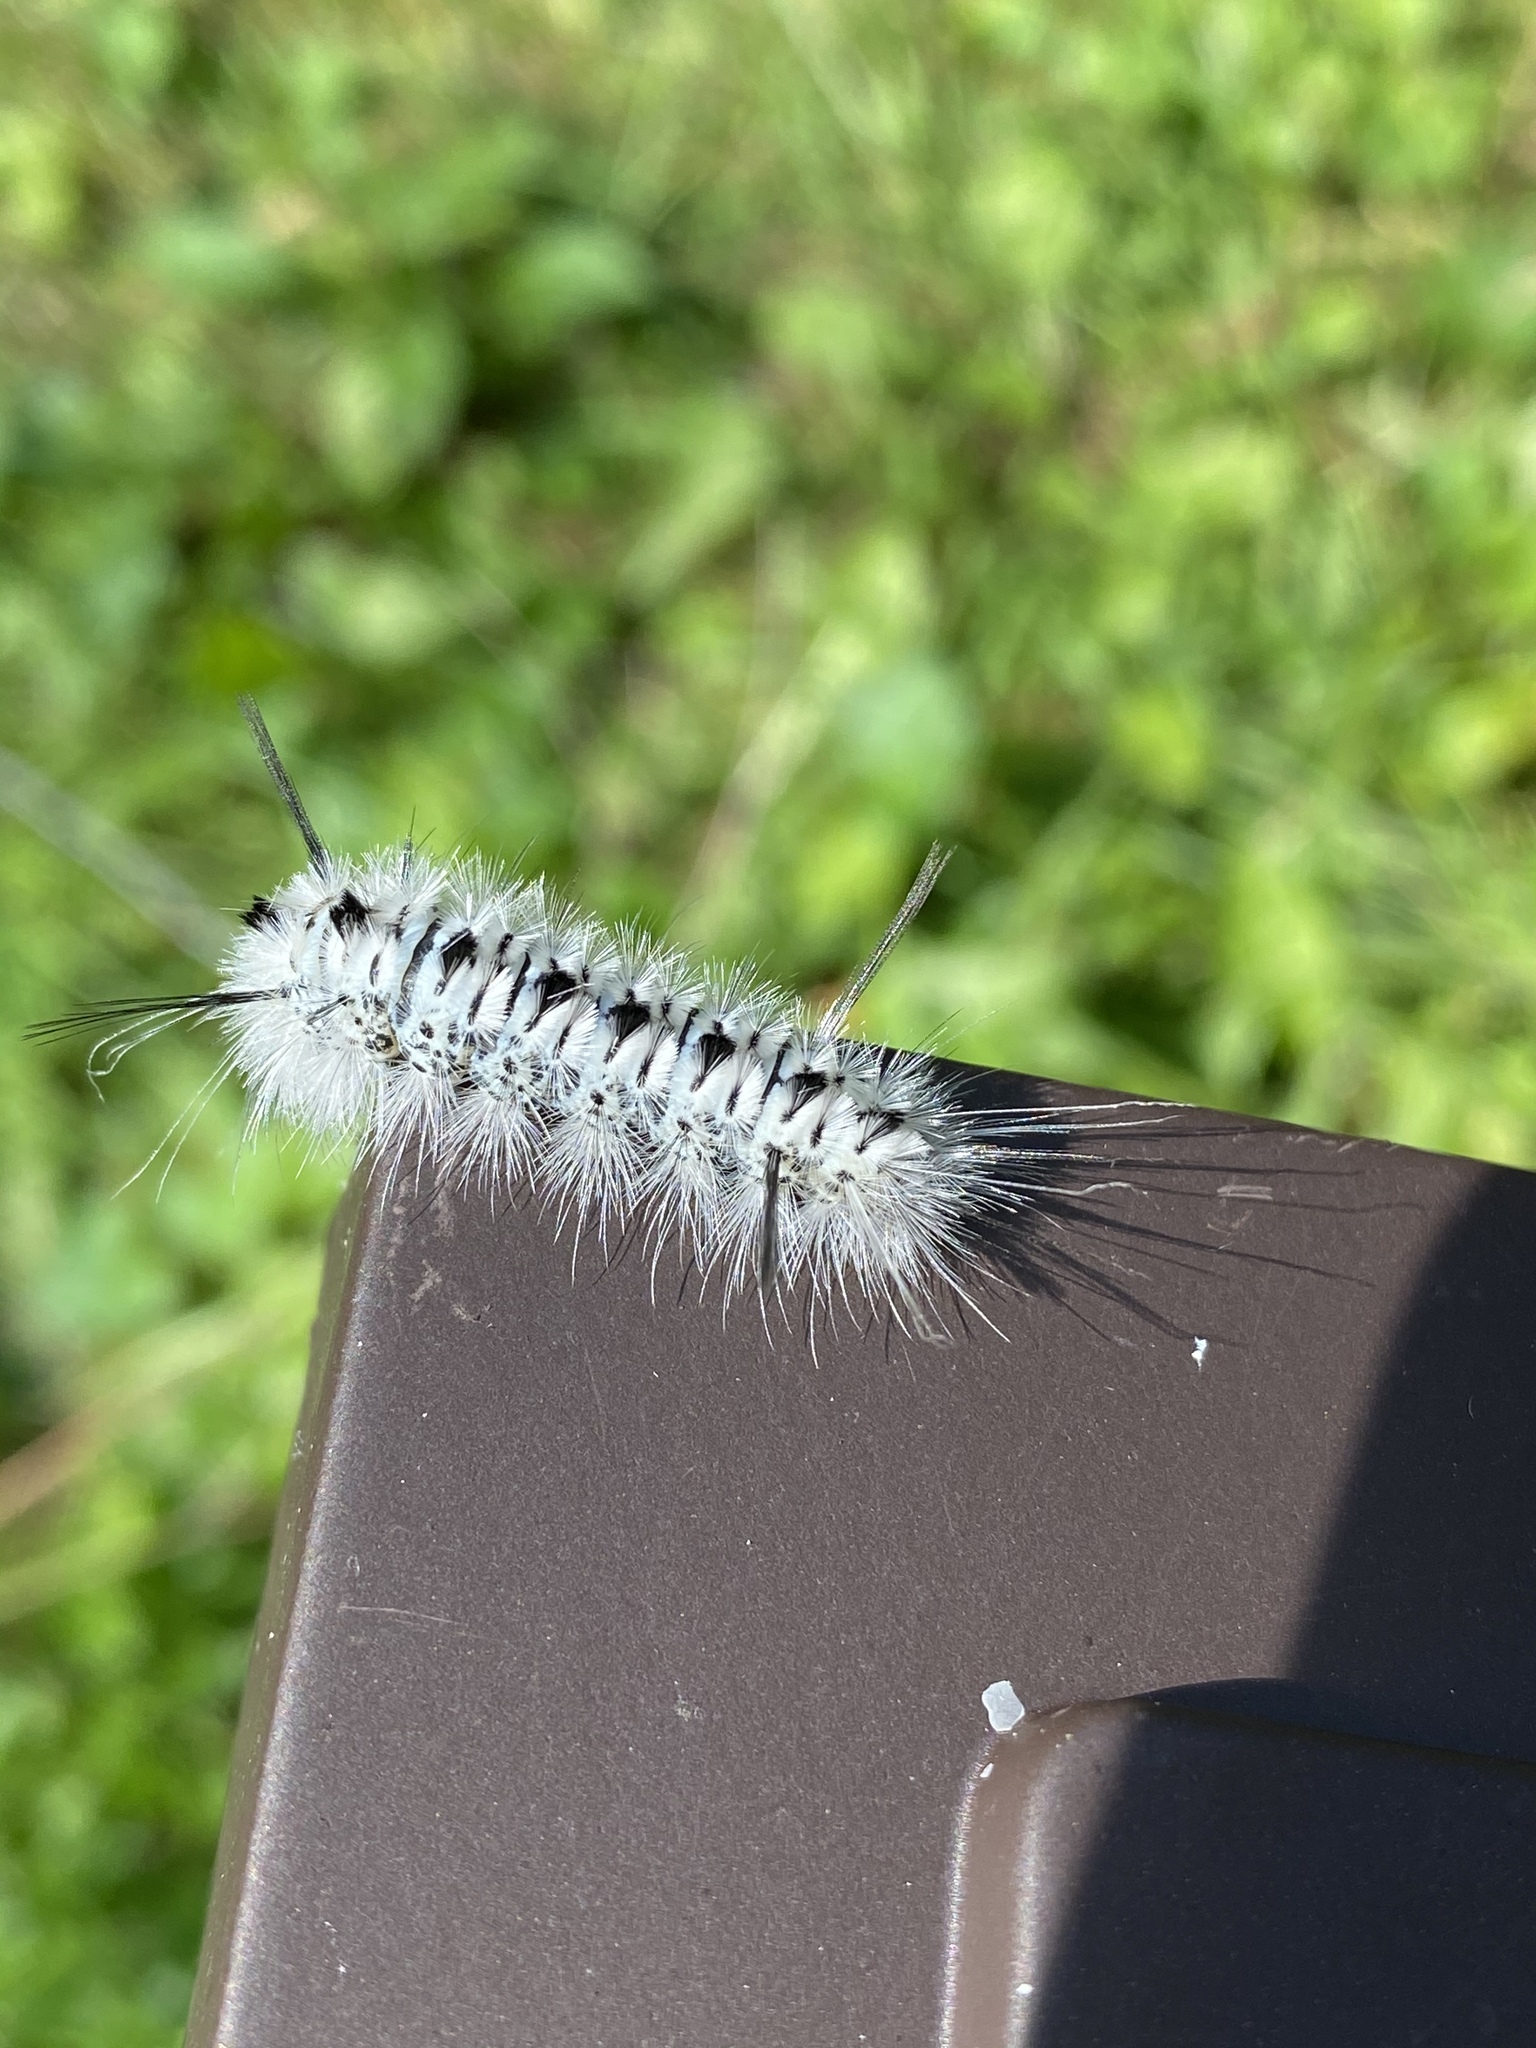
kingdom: Animalia
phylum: Arthropoda
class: Insecta
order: Lepidoptera
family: Erebidae
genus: Lophocampa
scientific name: Lophocampa caryae
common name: Hickory tussock moth
